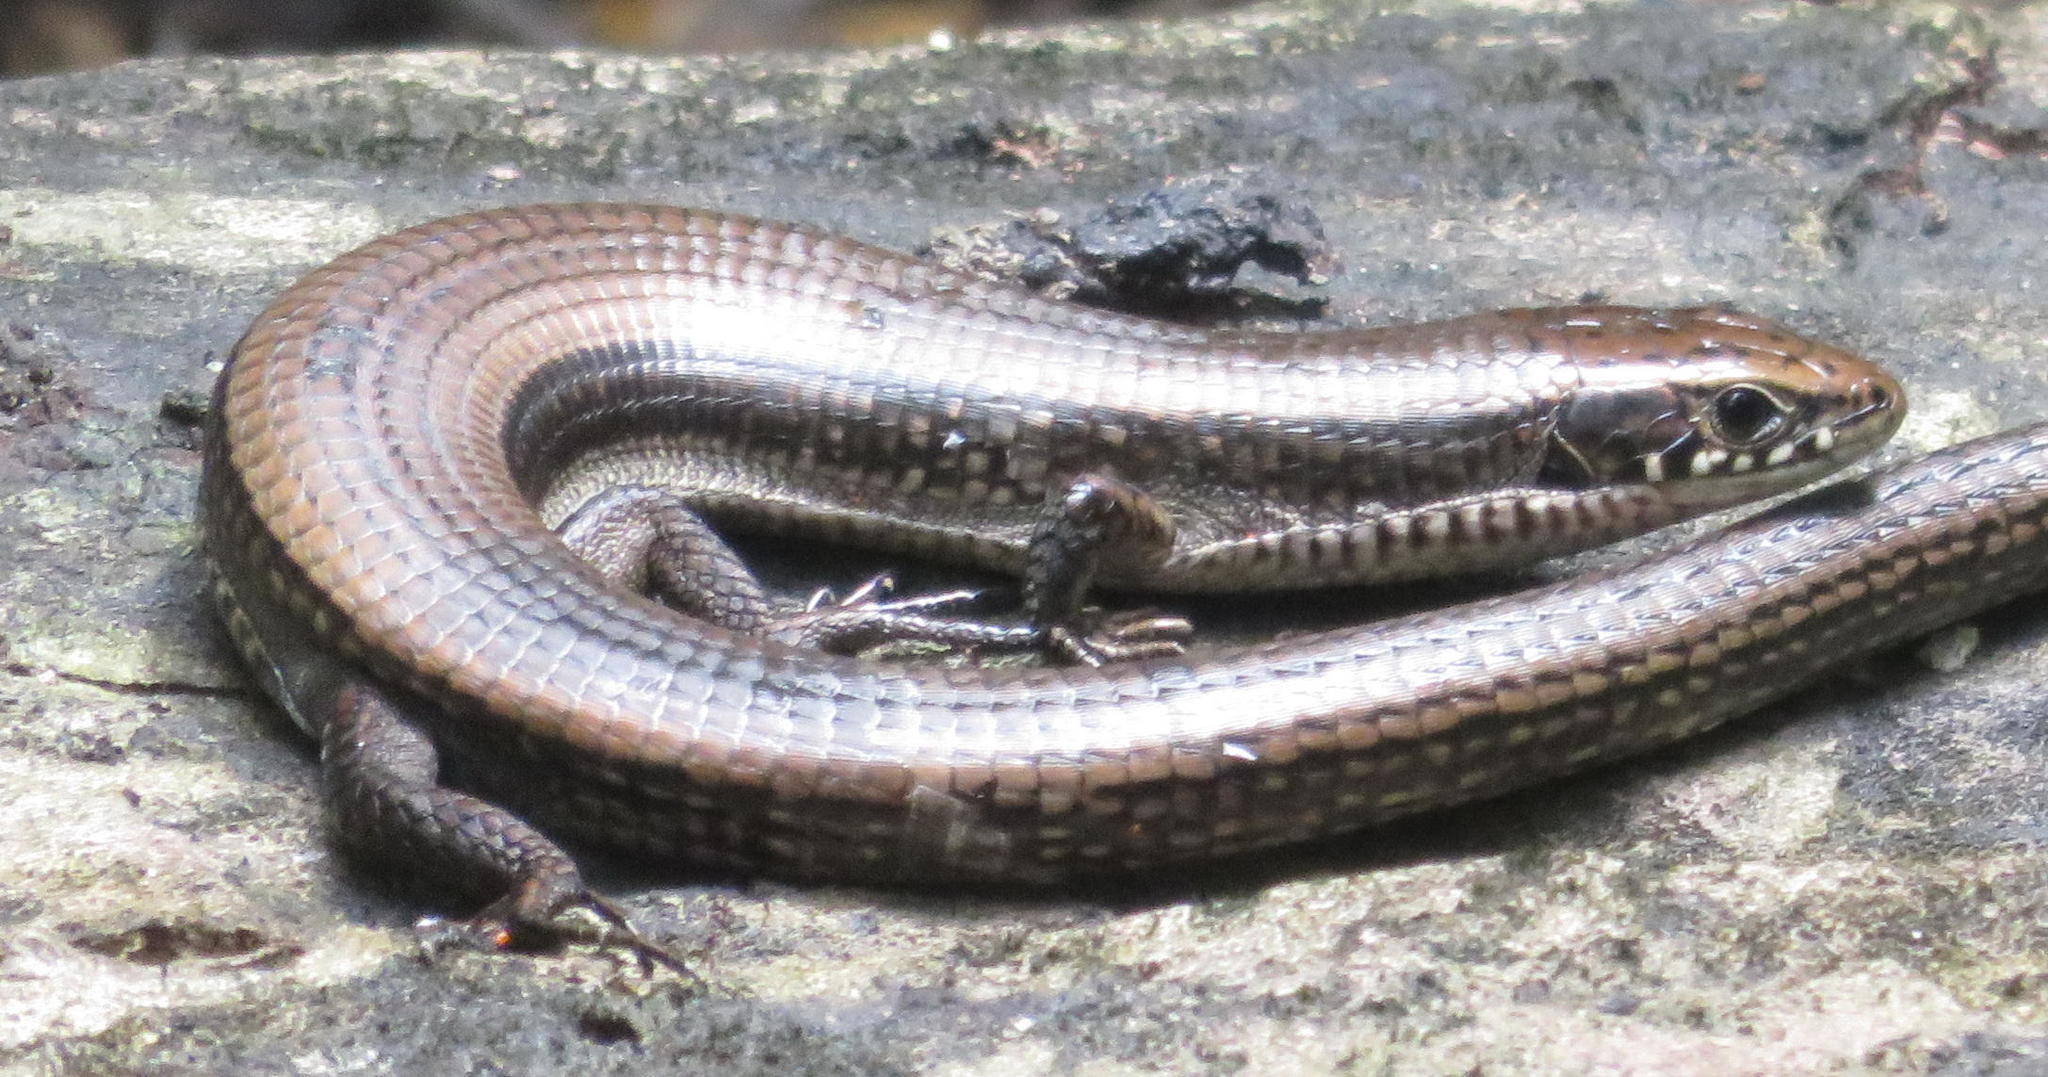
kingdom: Animalia
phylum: Chordata
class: Squamata
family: Gerrhosauridae
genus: Tetradactylus
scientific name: Tetradactylus seps
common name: Five-toed whip lizard
